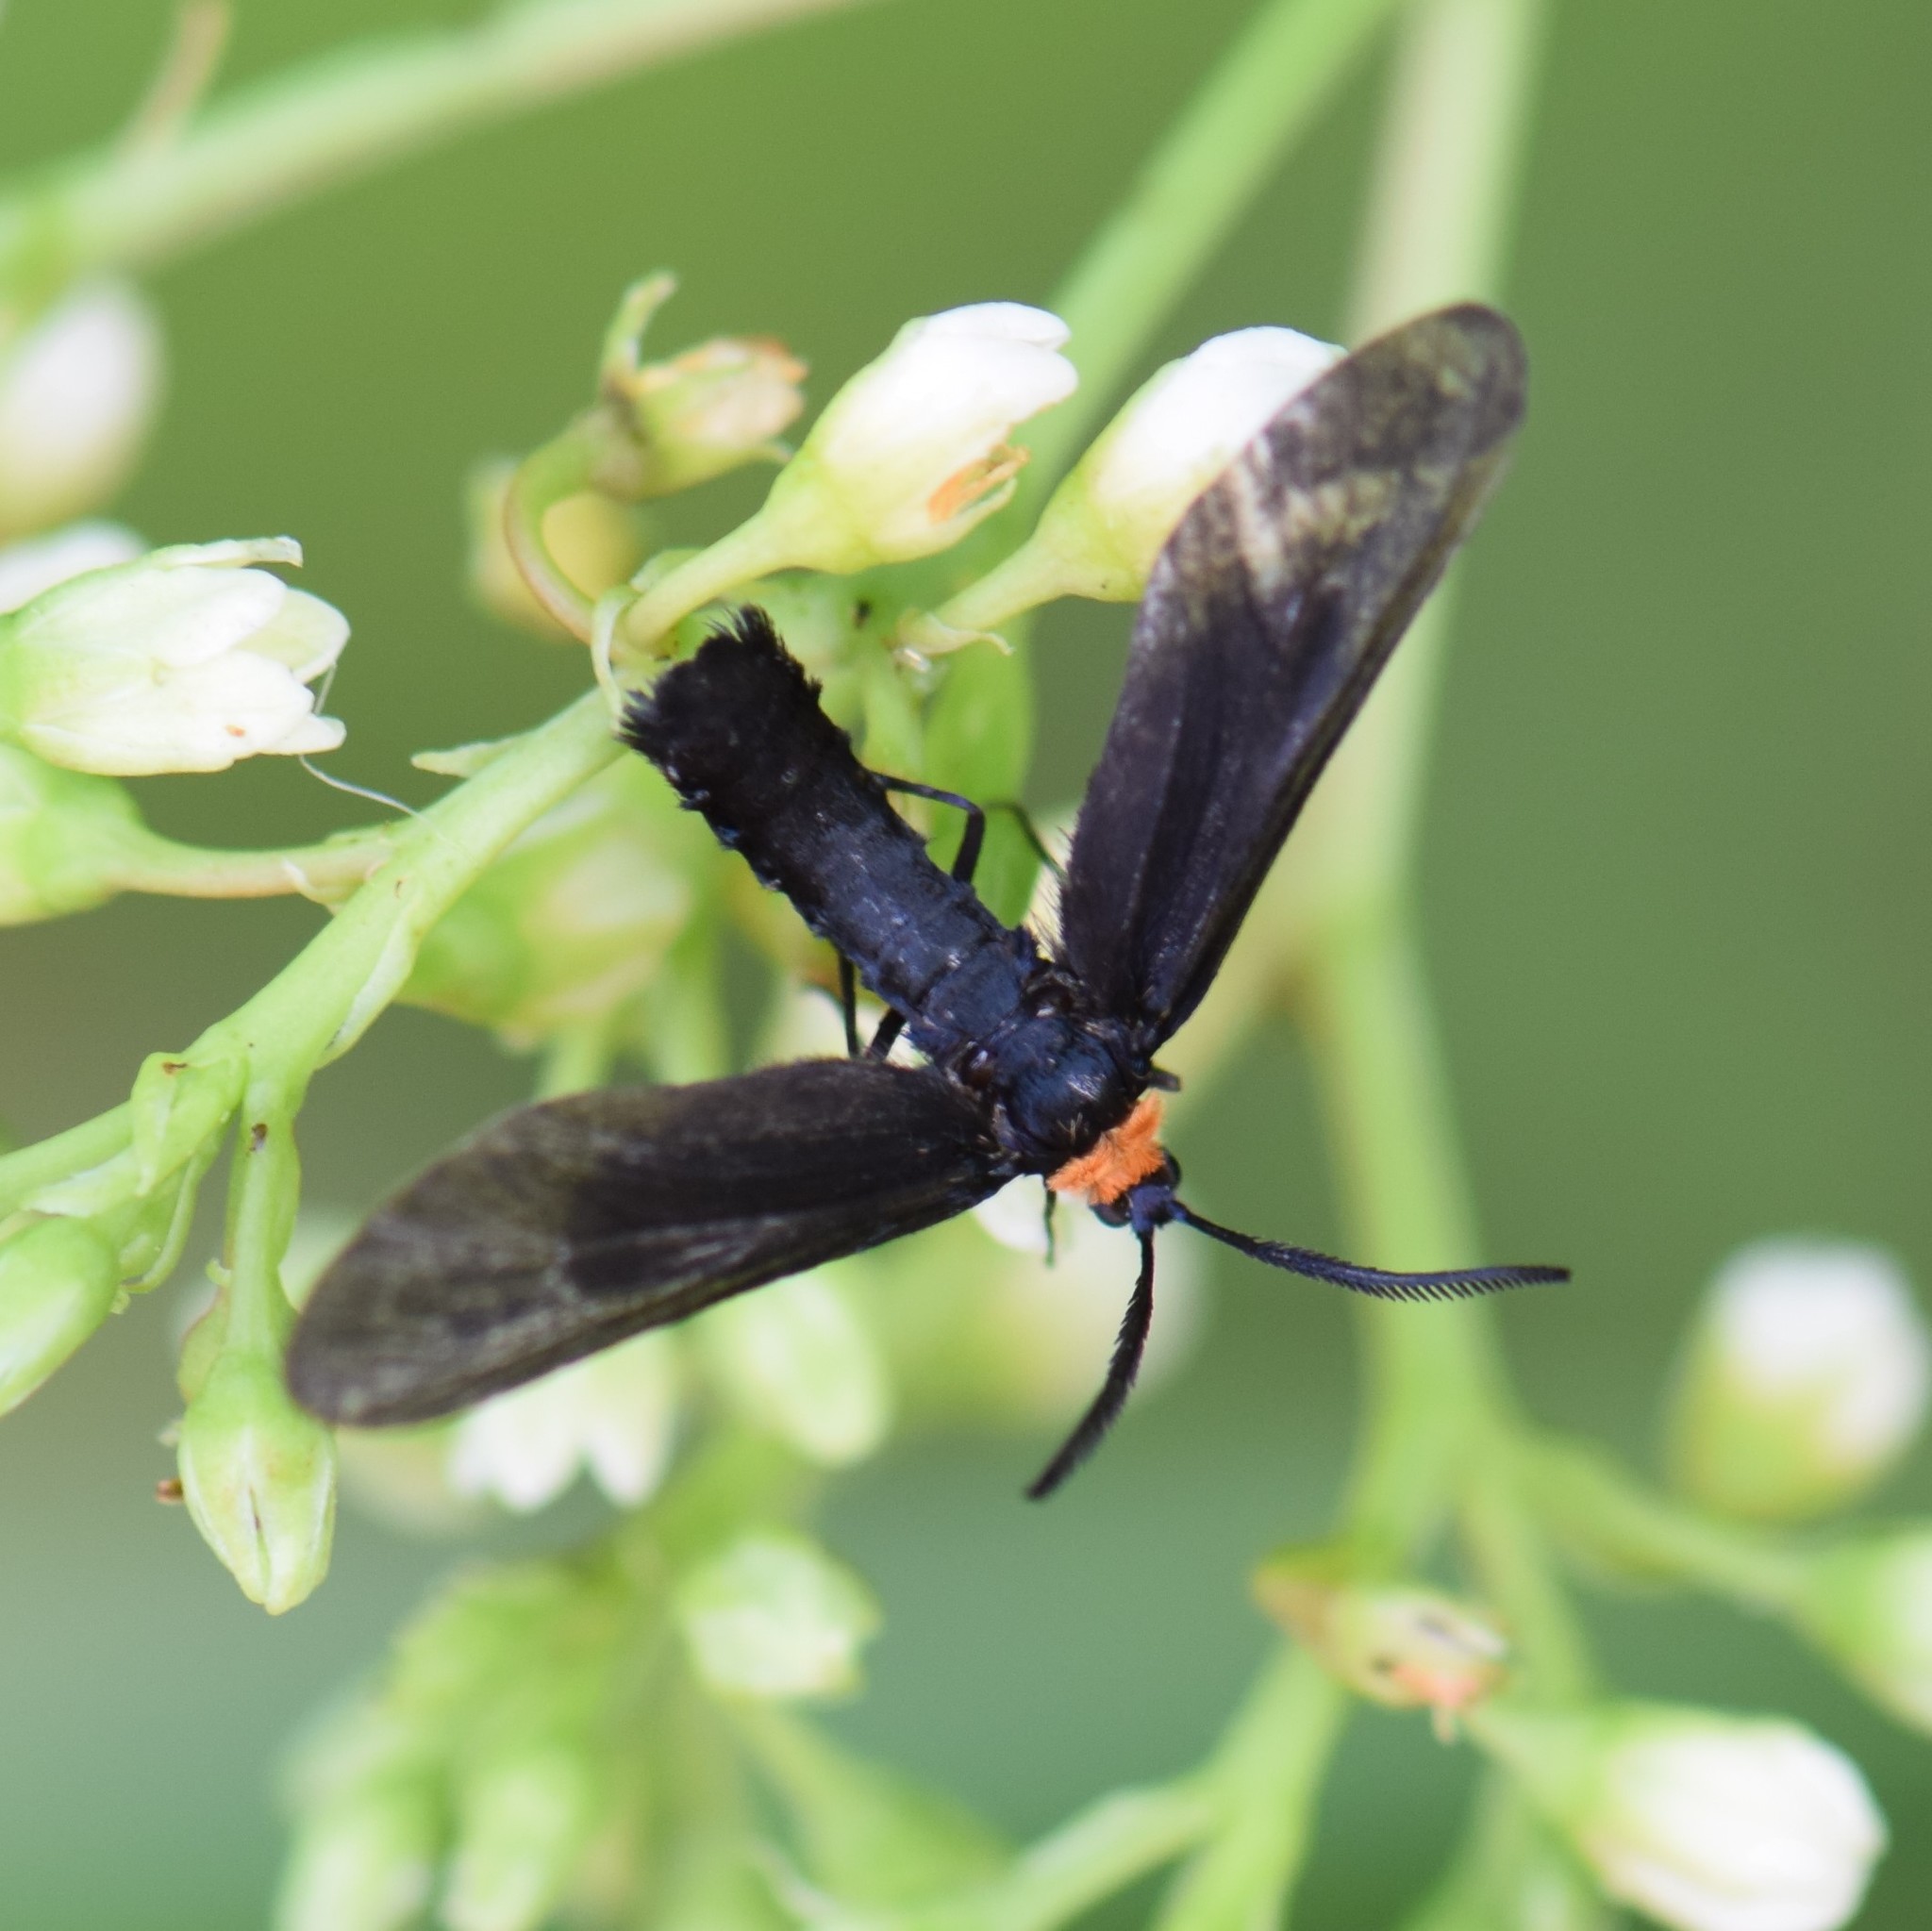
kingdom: Animalia
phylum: Arthropoda
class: Insecta
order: Lepidoptera
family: Zygaenidae
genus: Harrisina
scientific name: Harrisina americana
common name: Grapeleaf skeletonizer moth
